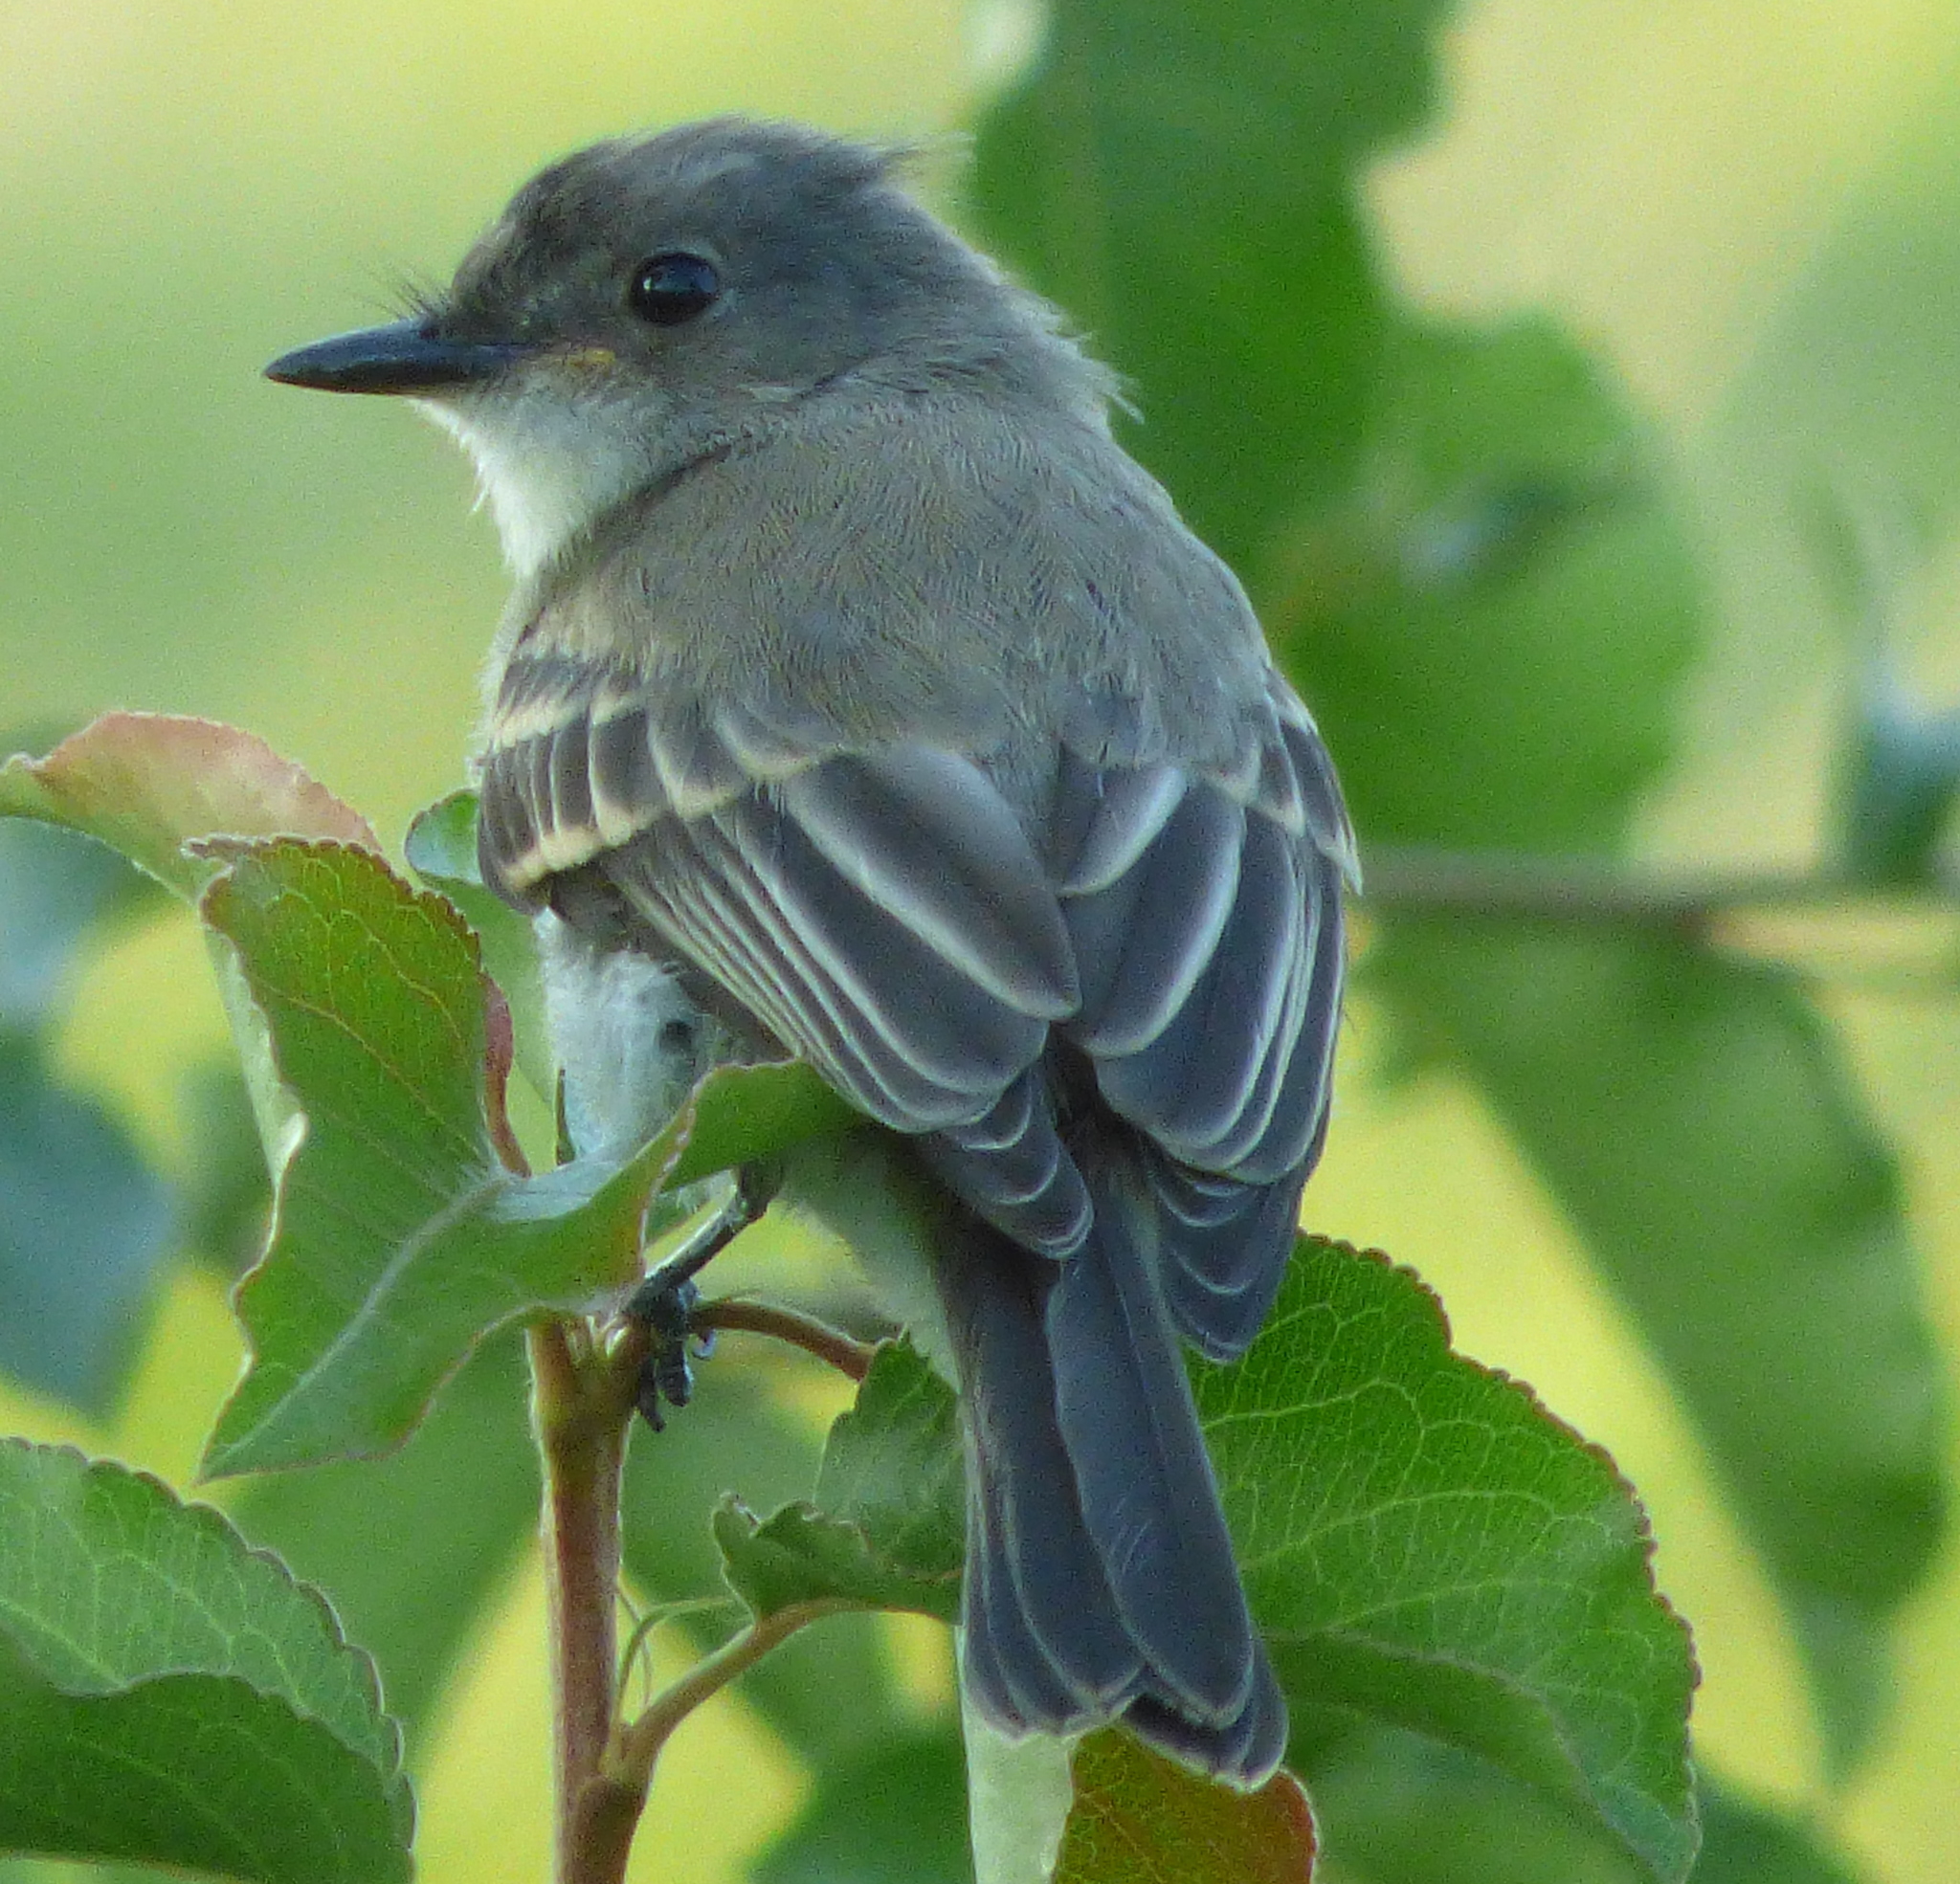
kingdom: Animalia
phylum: Chordata
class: Aves
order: Passeriformes
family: Tyrannidae
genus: Sayornis
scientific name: Sayornis phoebe
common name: Eastern phoebe
